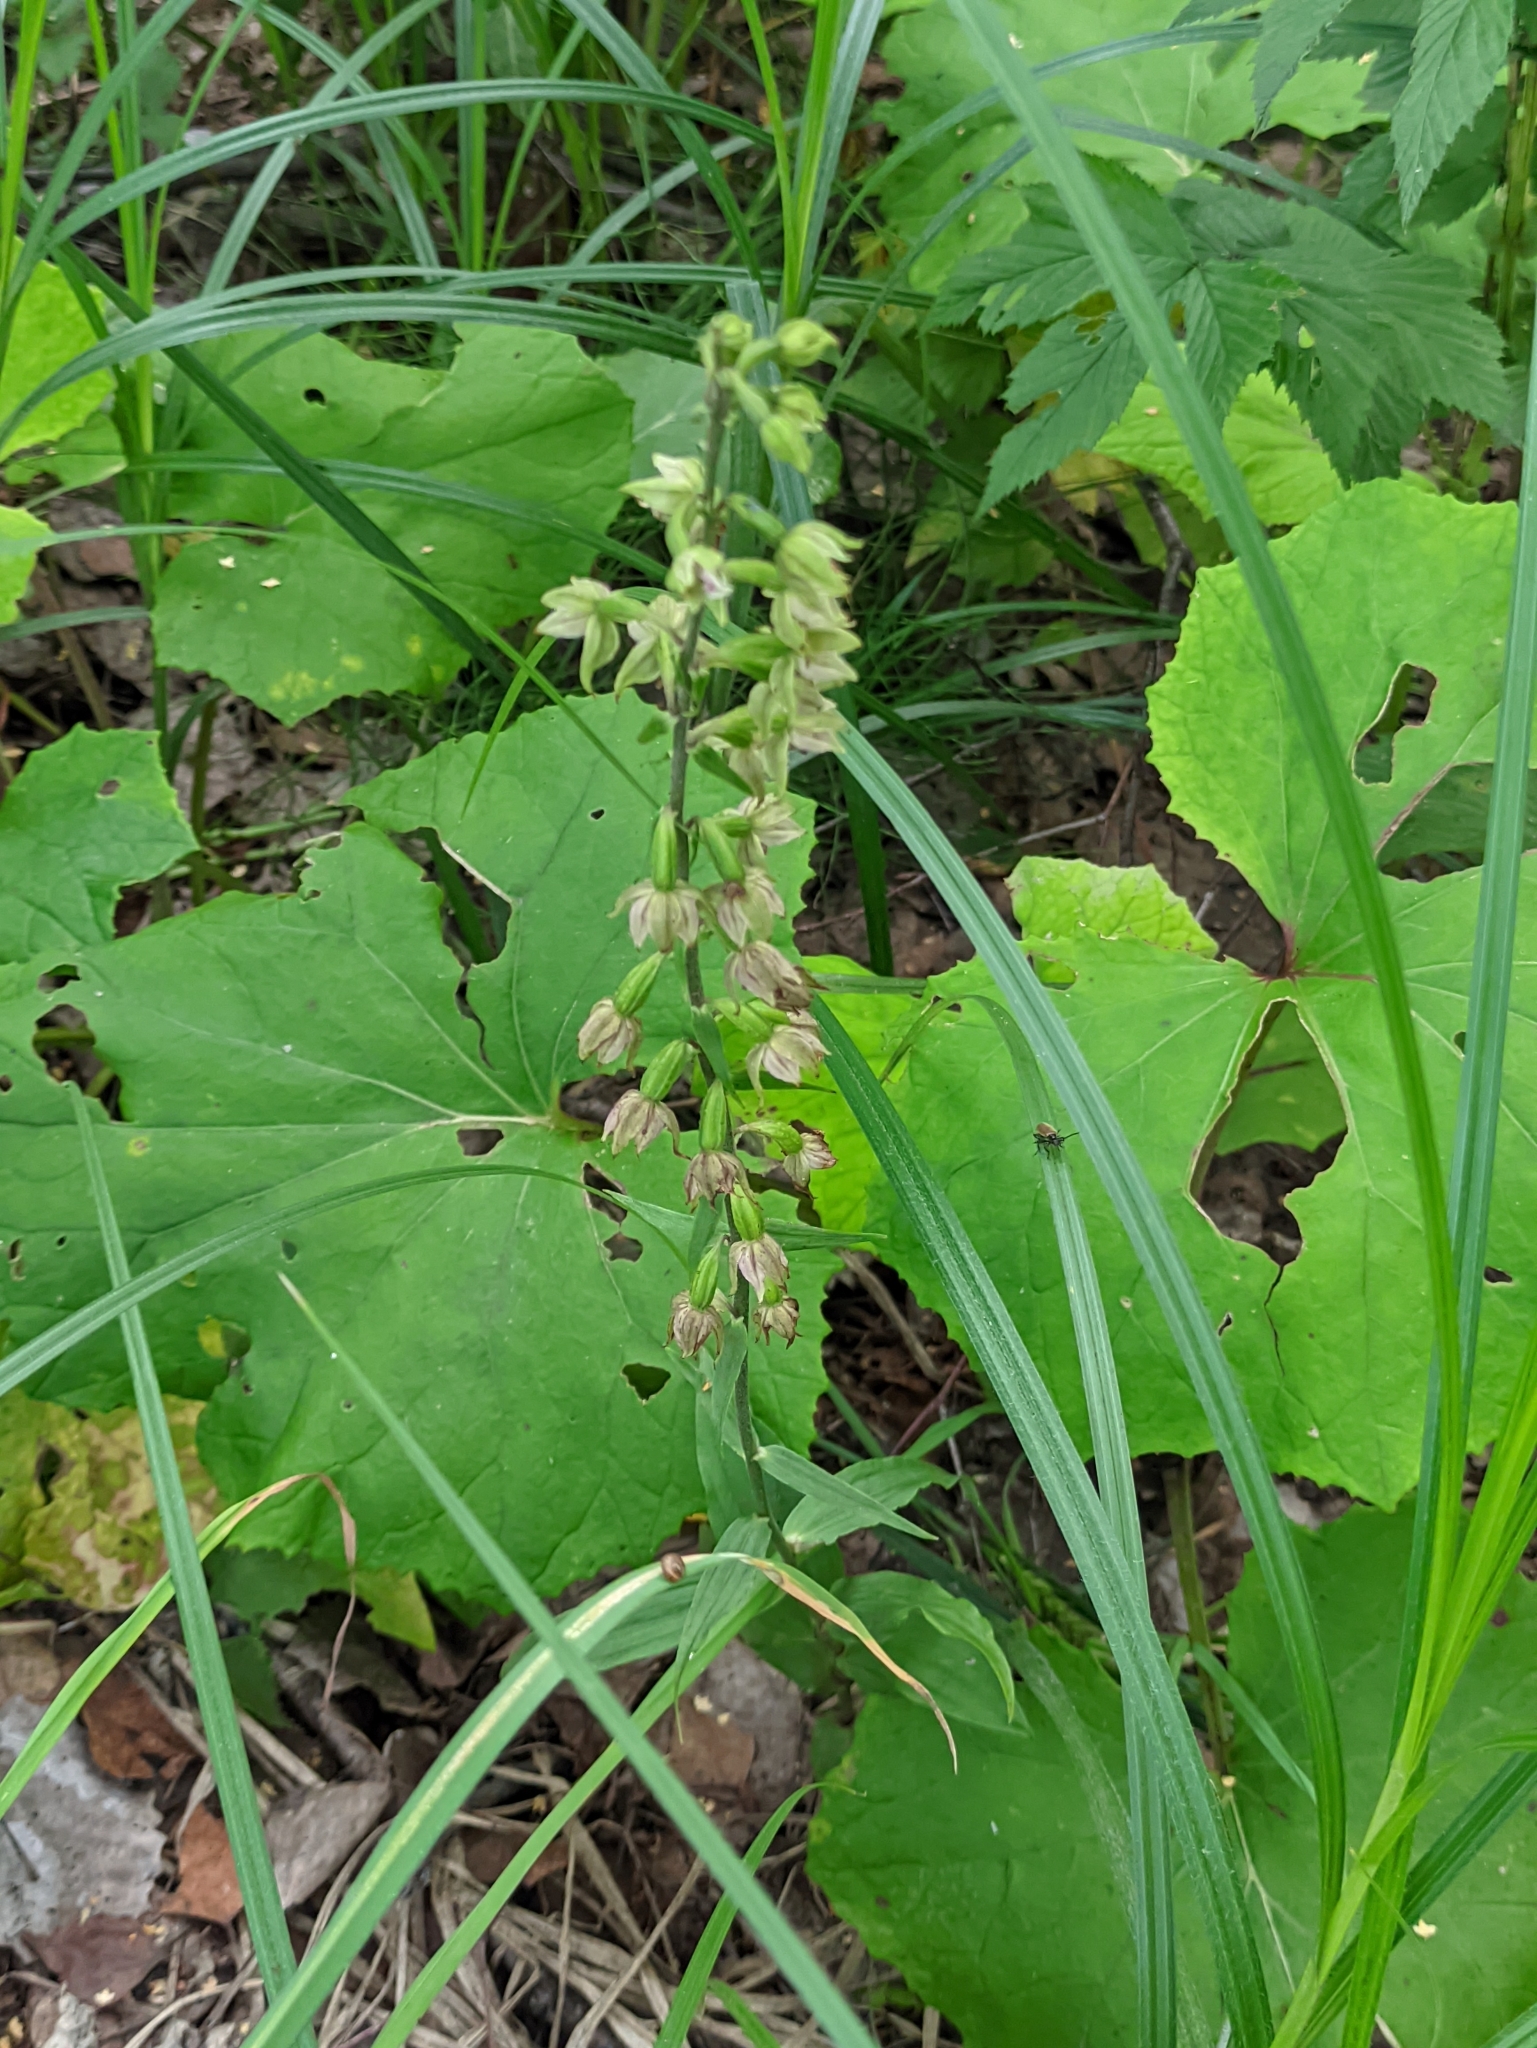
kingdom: Plantae
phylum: Tracheophyta
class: Liliopsida
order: Asparagales
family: Orchidaceae
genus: Epipactis
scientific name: Epipactis helleborine
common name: Broad-leaved helleborine
